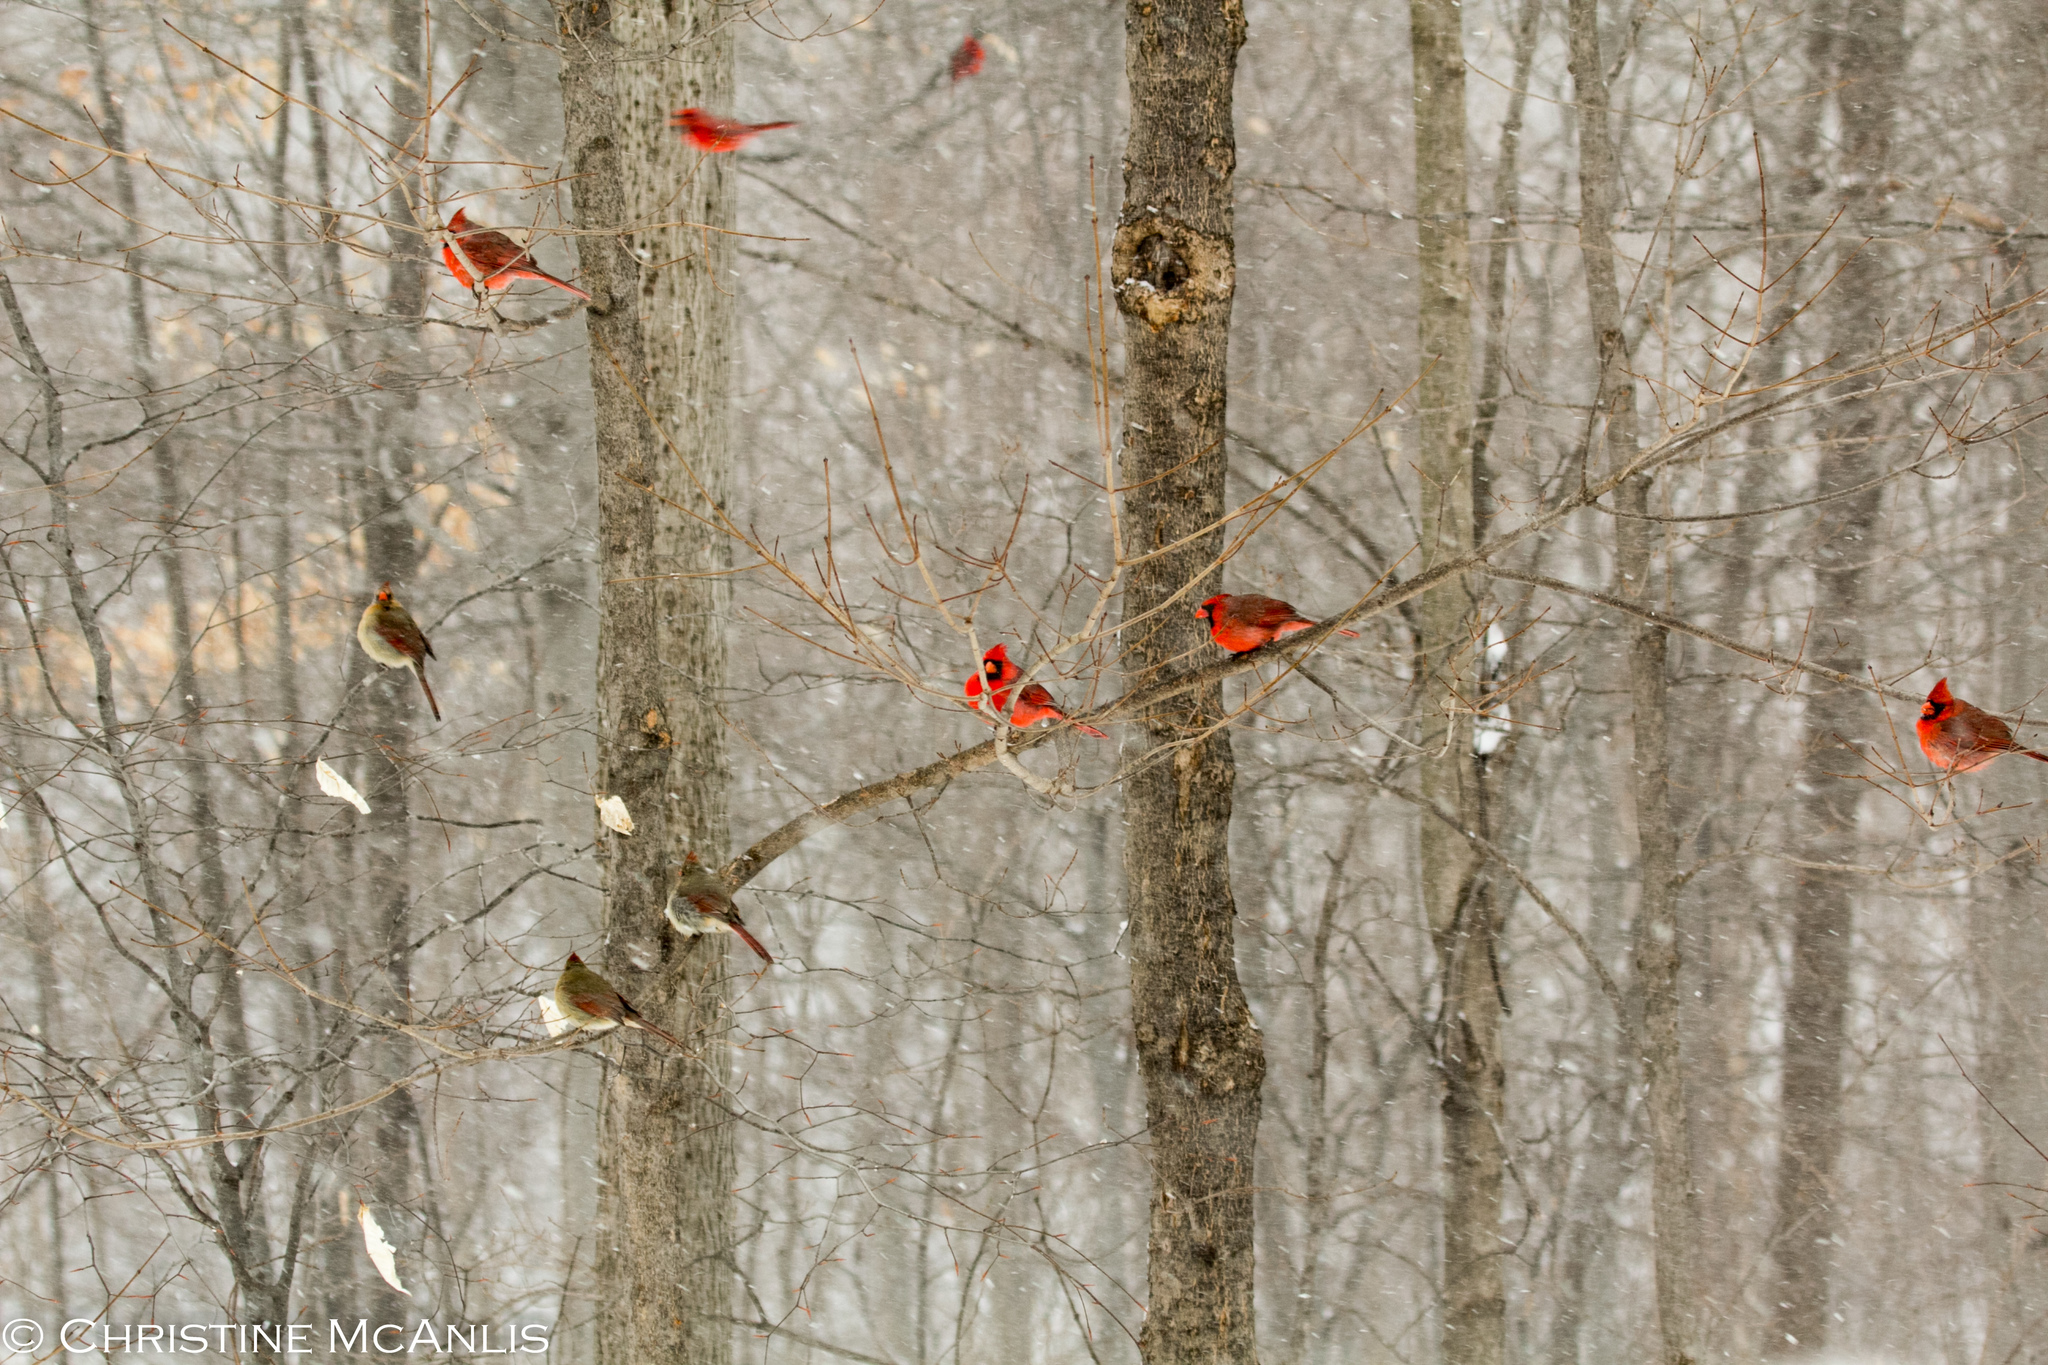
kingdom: Animalia
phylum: Chordata
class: Aves
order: Passeriformes
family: Cardinalidae
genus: Cardinalis
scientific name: Cardinalis cardinalis
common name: Northern cardinal
